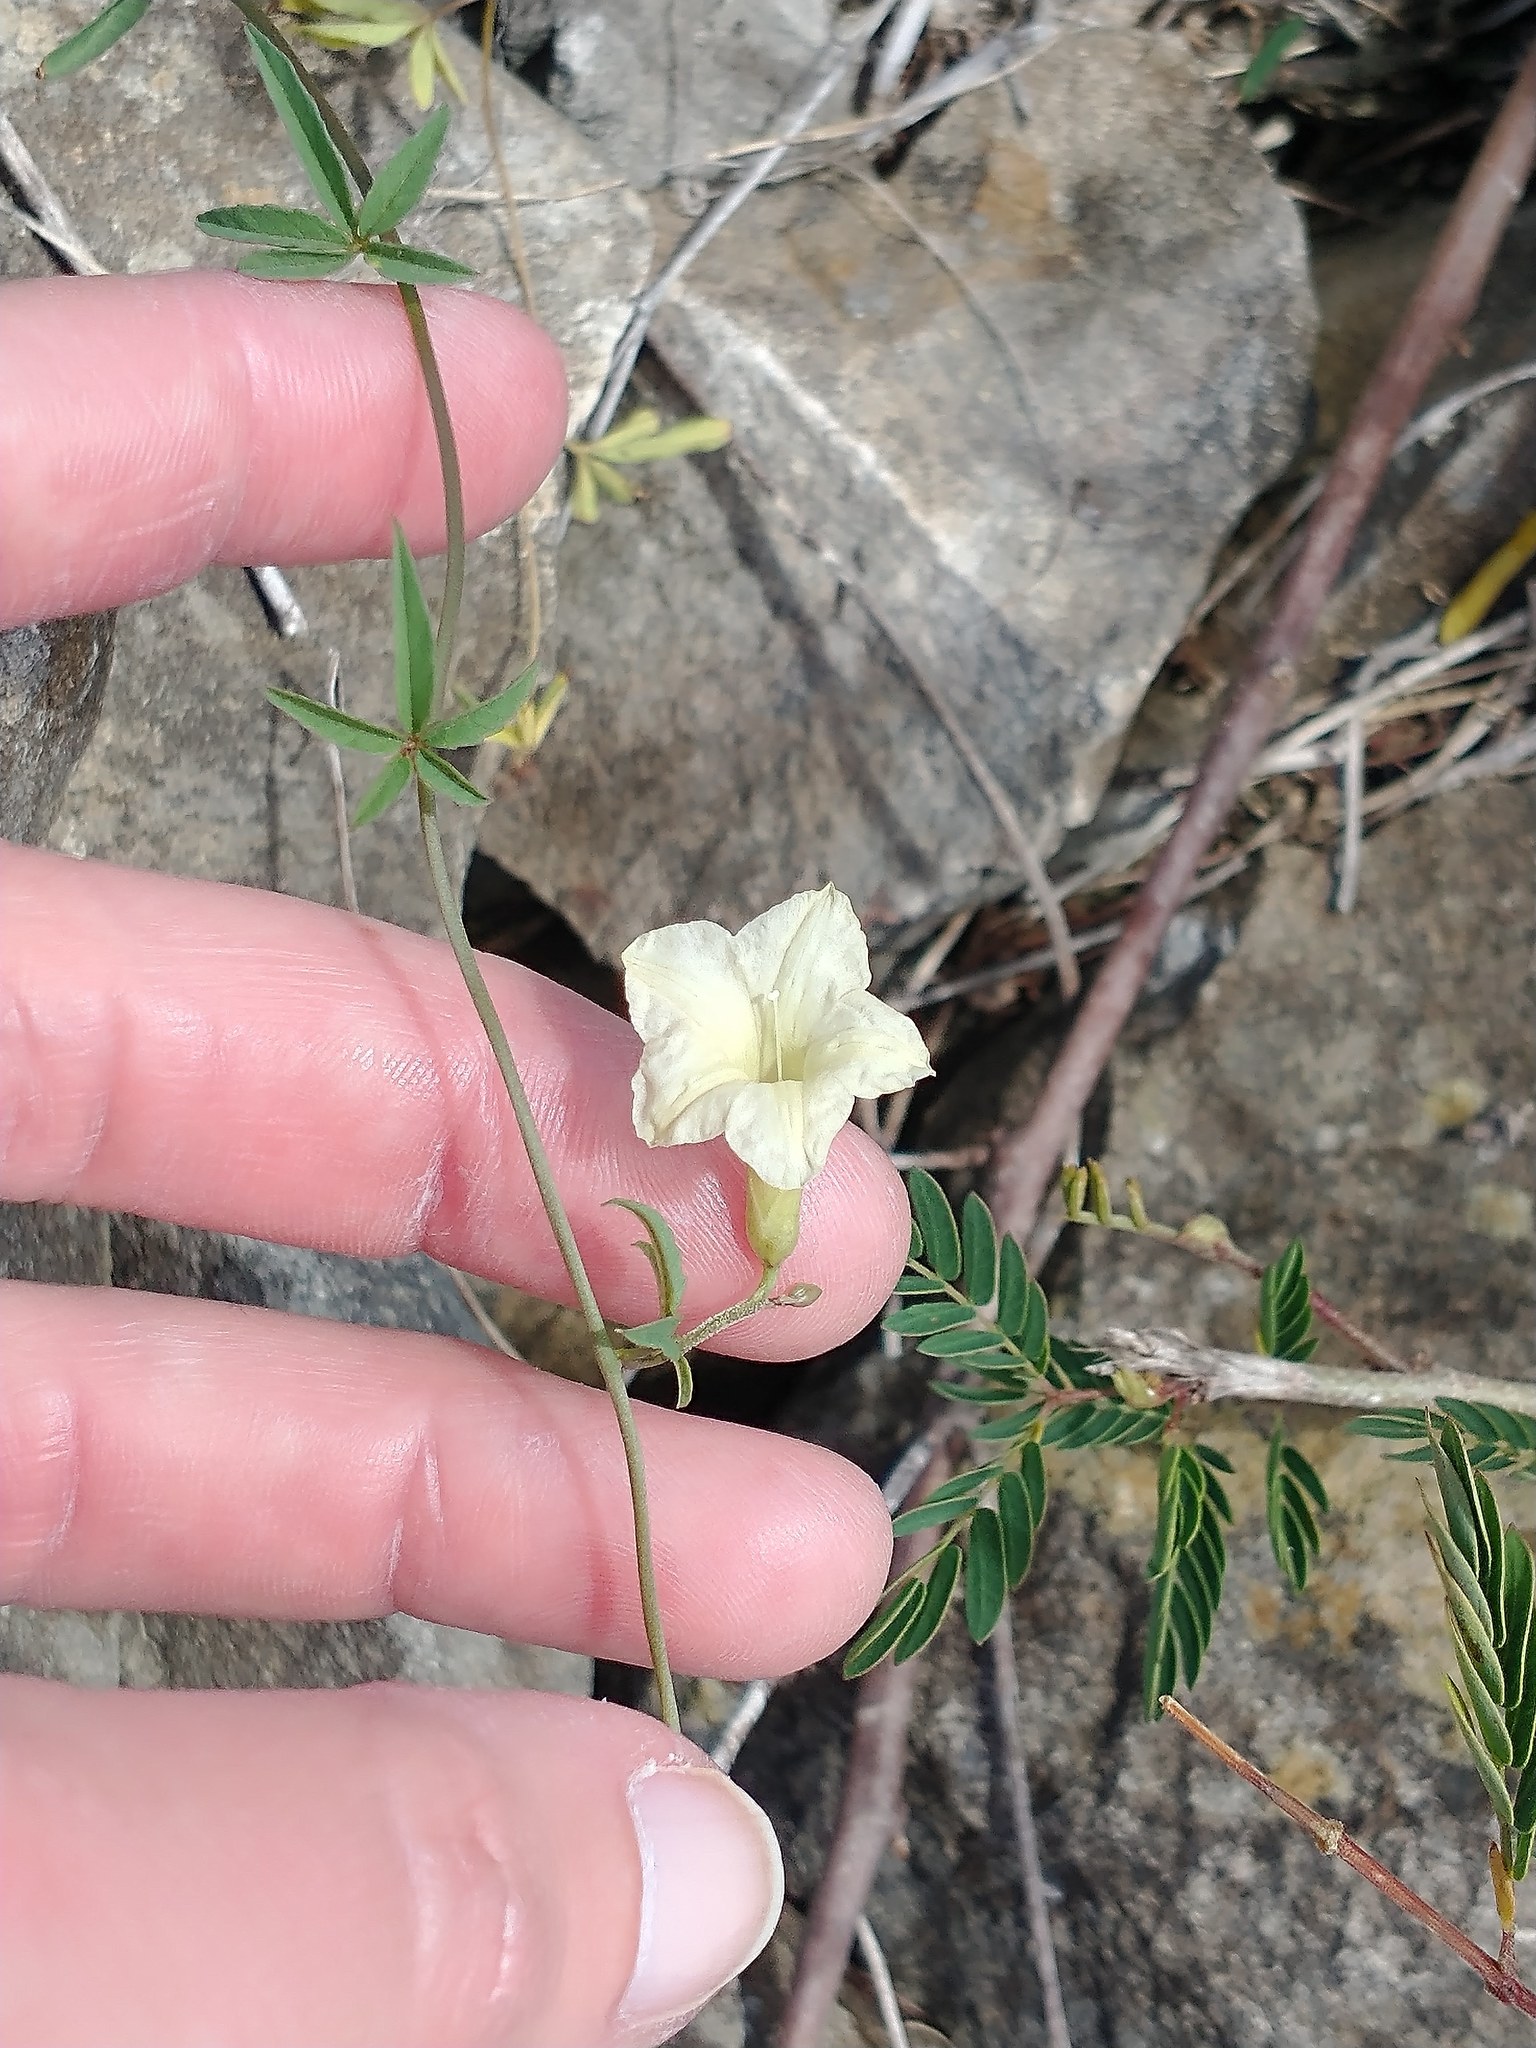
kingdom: Plantae
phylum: Tracheophyta
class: Magnoliopsida
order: Solanales
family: Convolvulaceae
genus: Distimake
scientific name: Distimake quinquefolius
